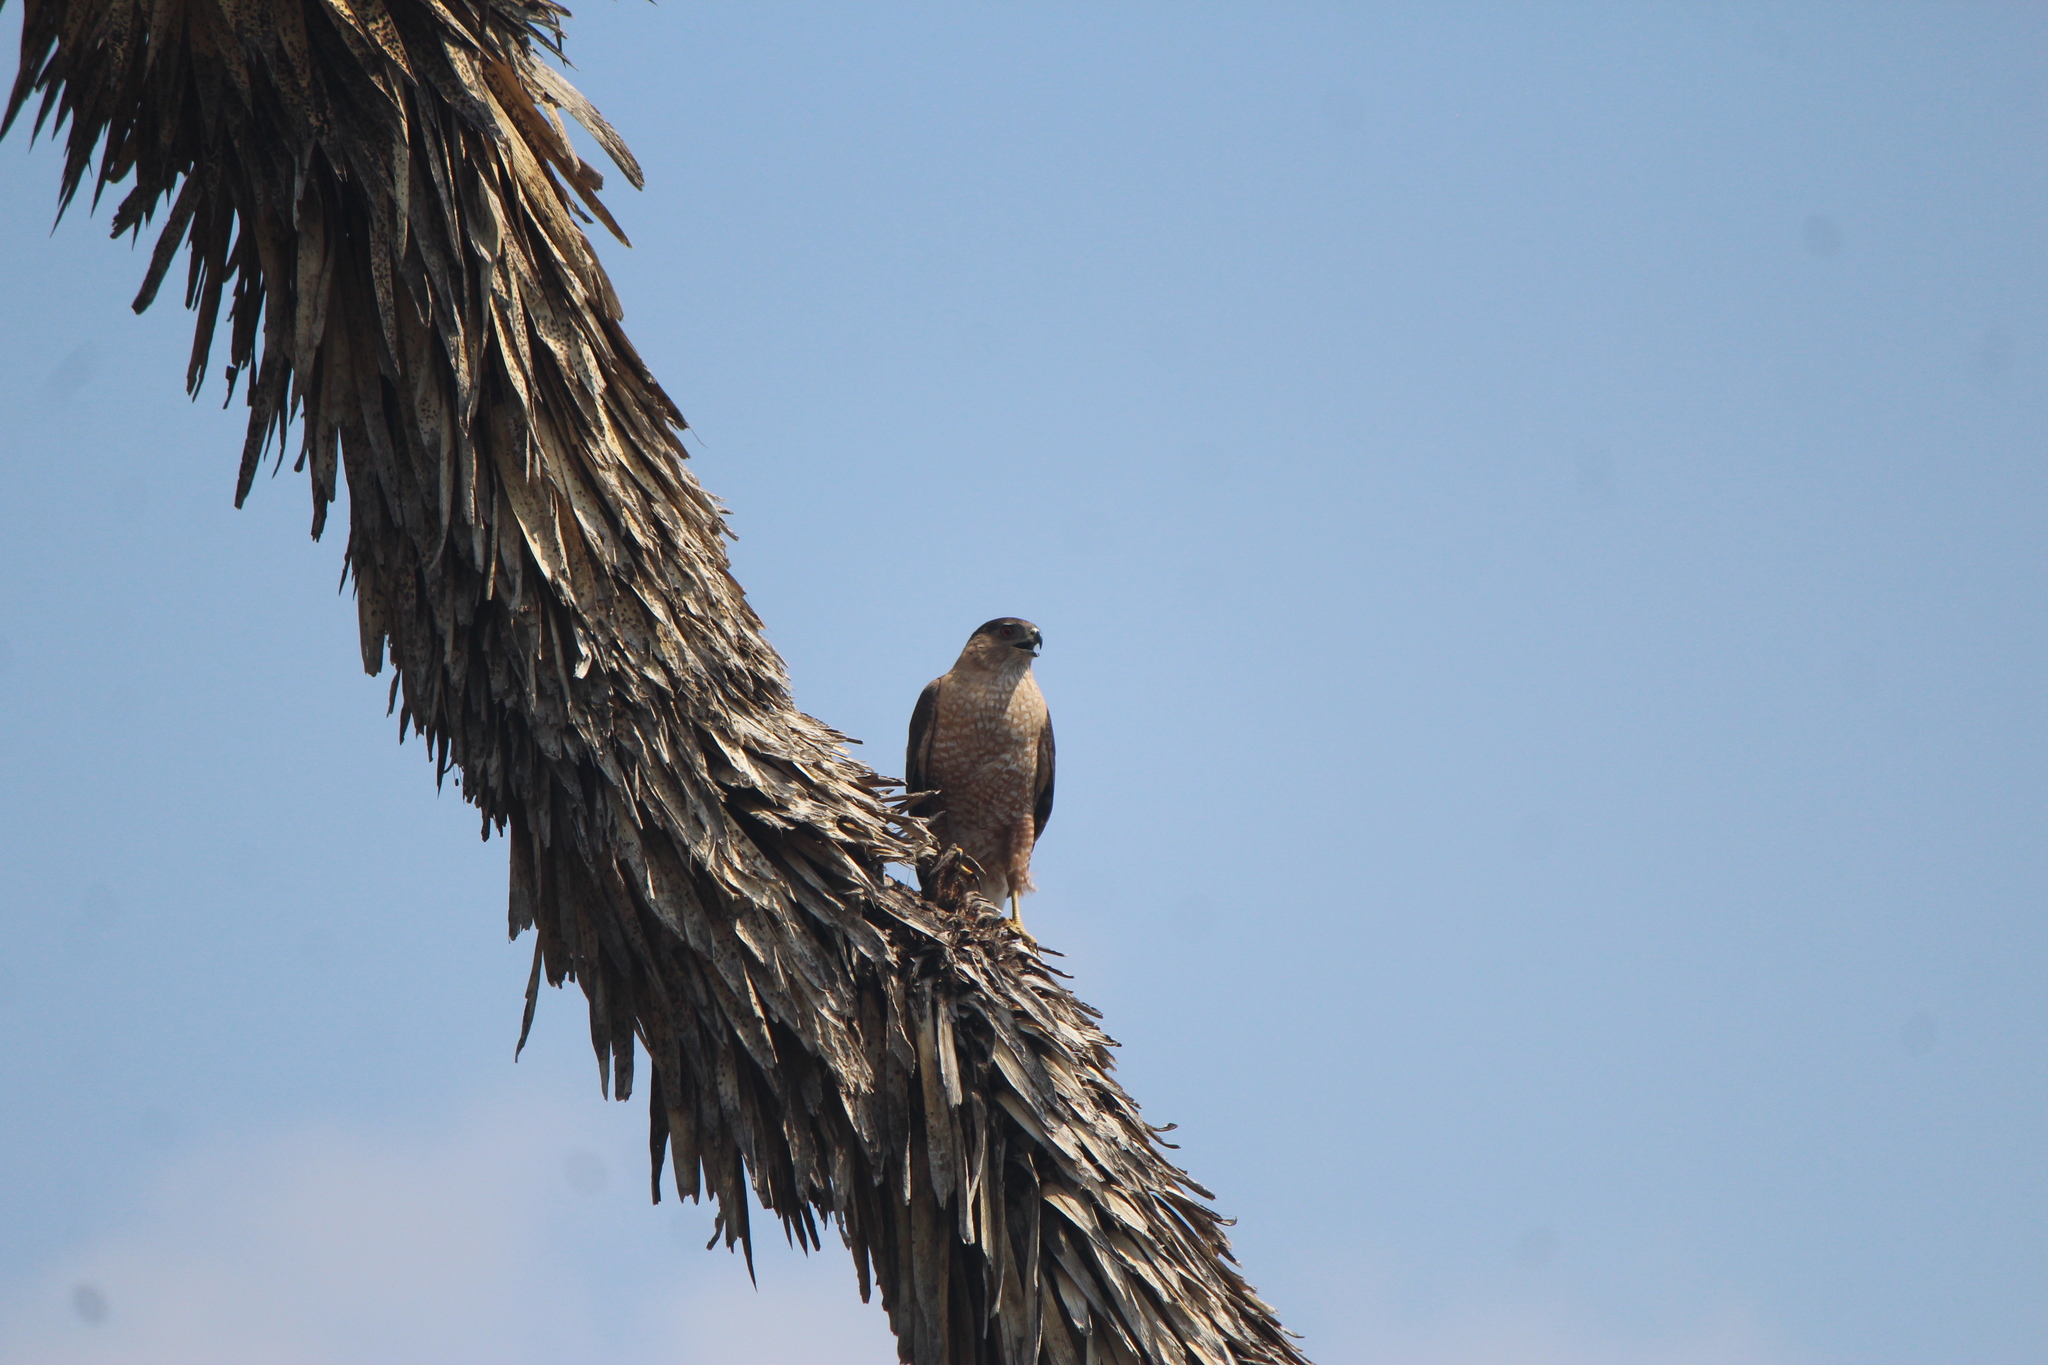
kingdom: Animalia
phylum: Chordata
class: Aves
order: Accipitriformes
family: Accipitridae
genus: Accipiter
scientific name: Accipiter cooperii
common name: Cooper's hawk
